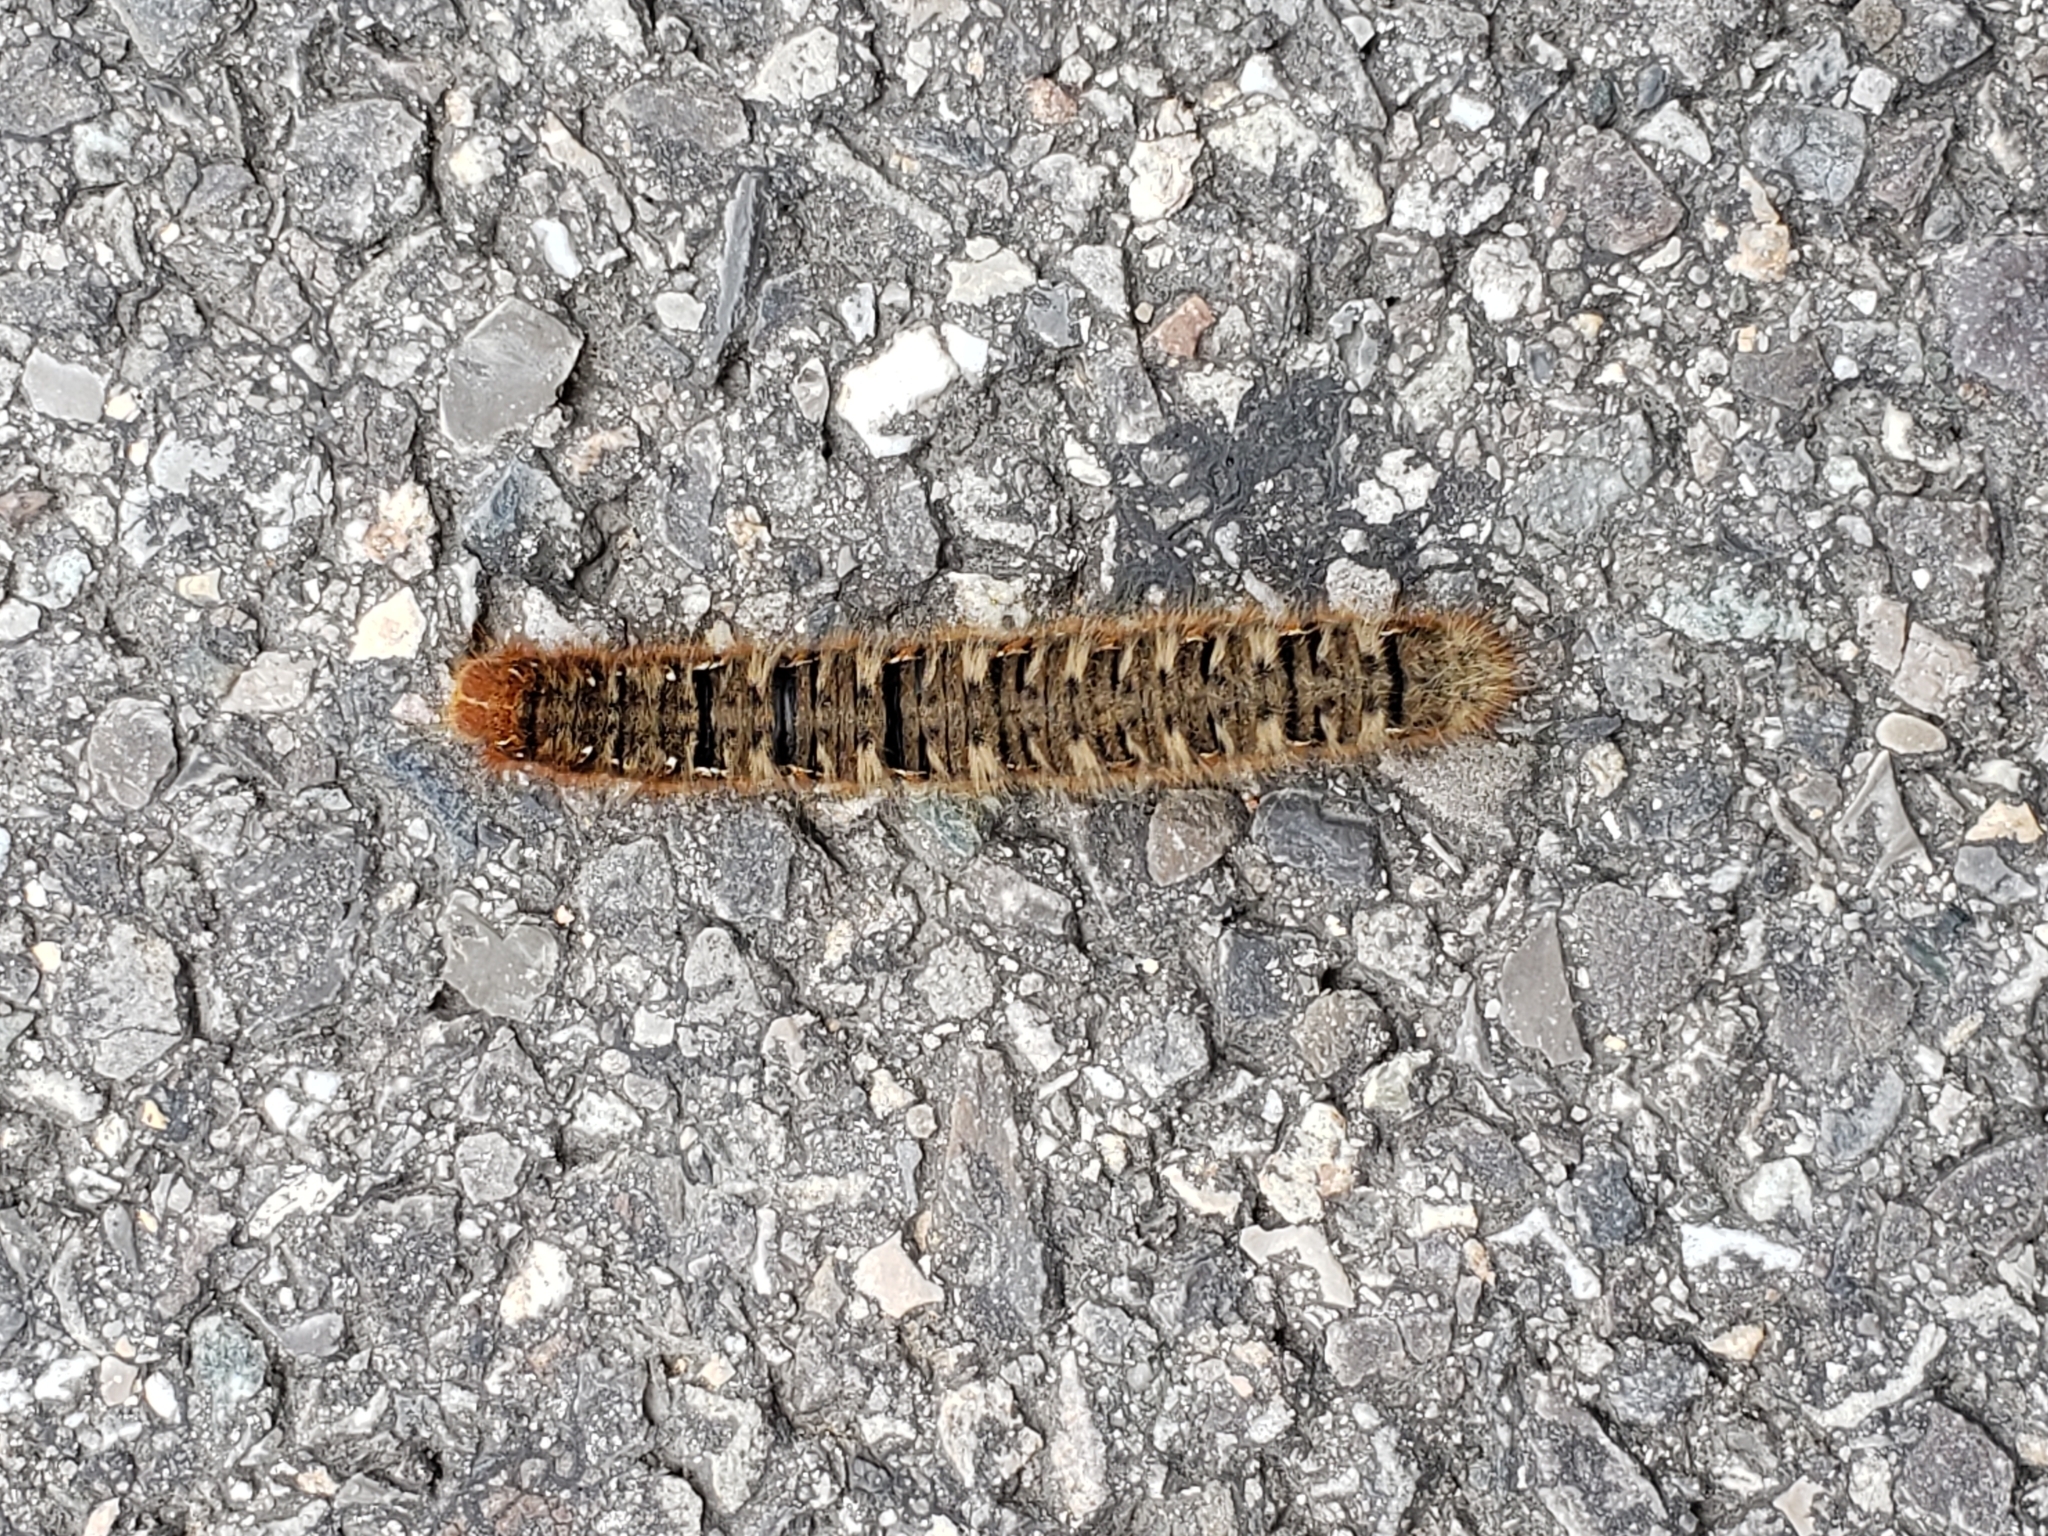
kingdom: Animalia
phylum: Arthropoda
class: Insecta
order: Lepidoptera
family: Lasiocampidae
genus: Lasiocampa
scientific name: Lasiocampa quercus
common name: Oak eggar
